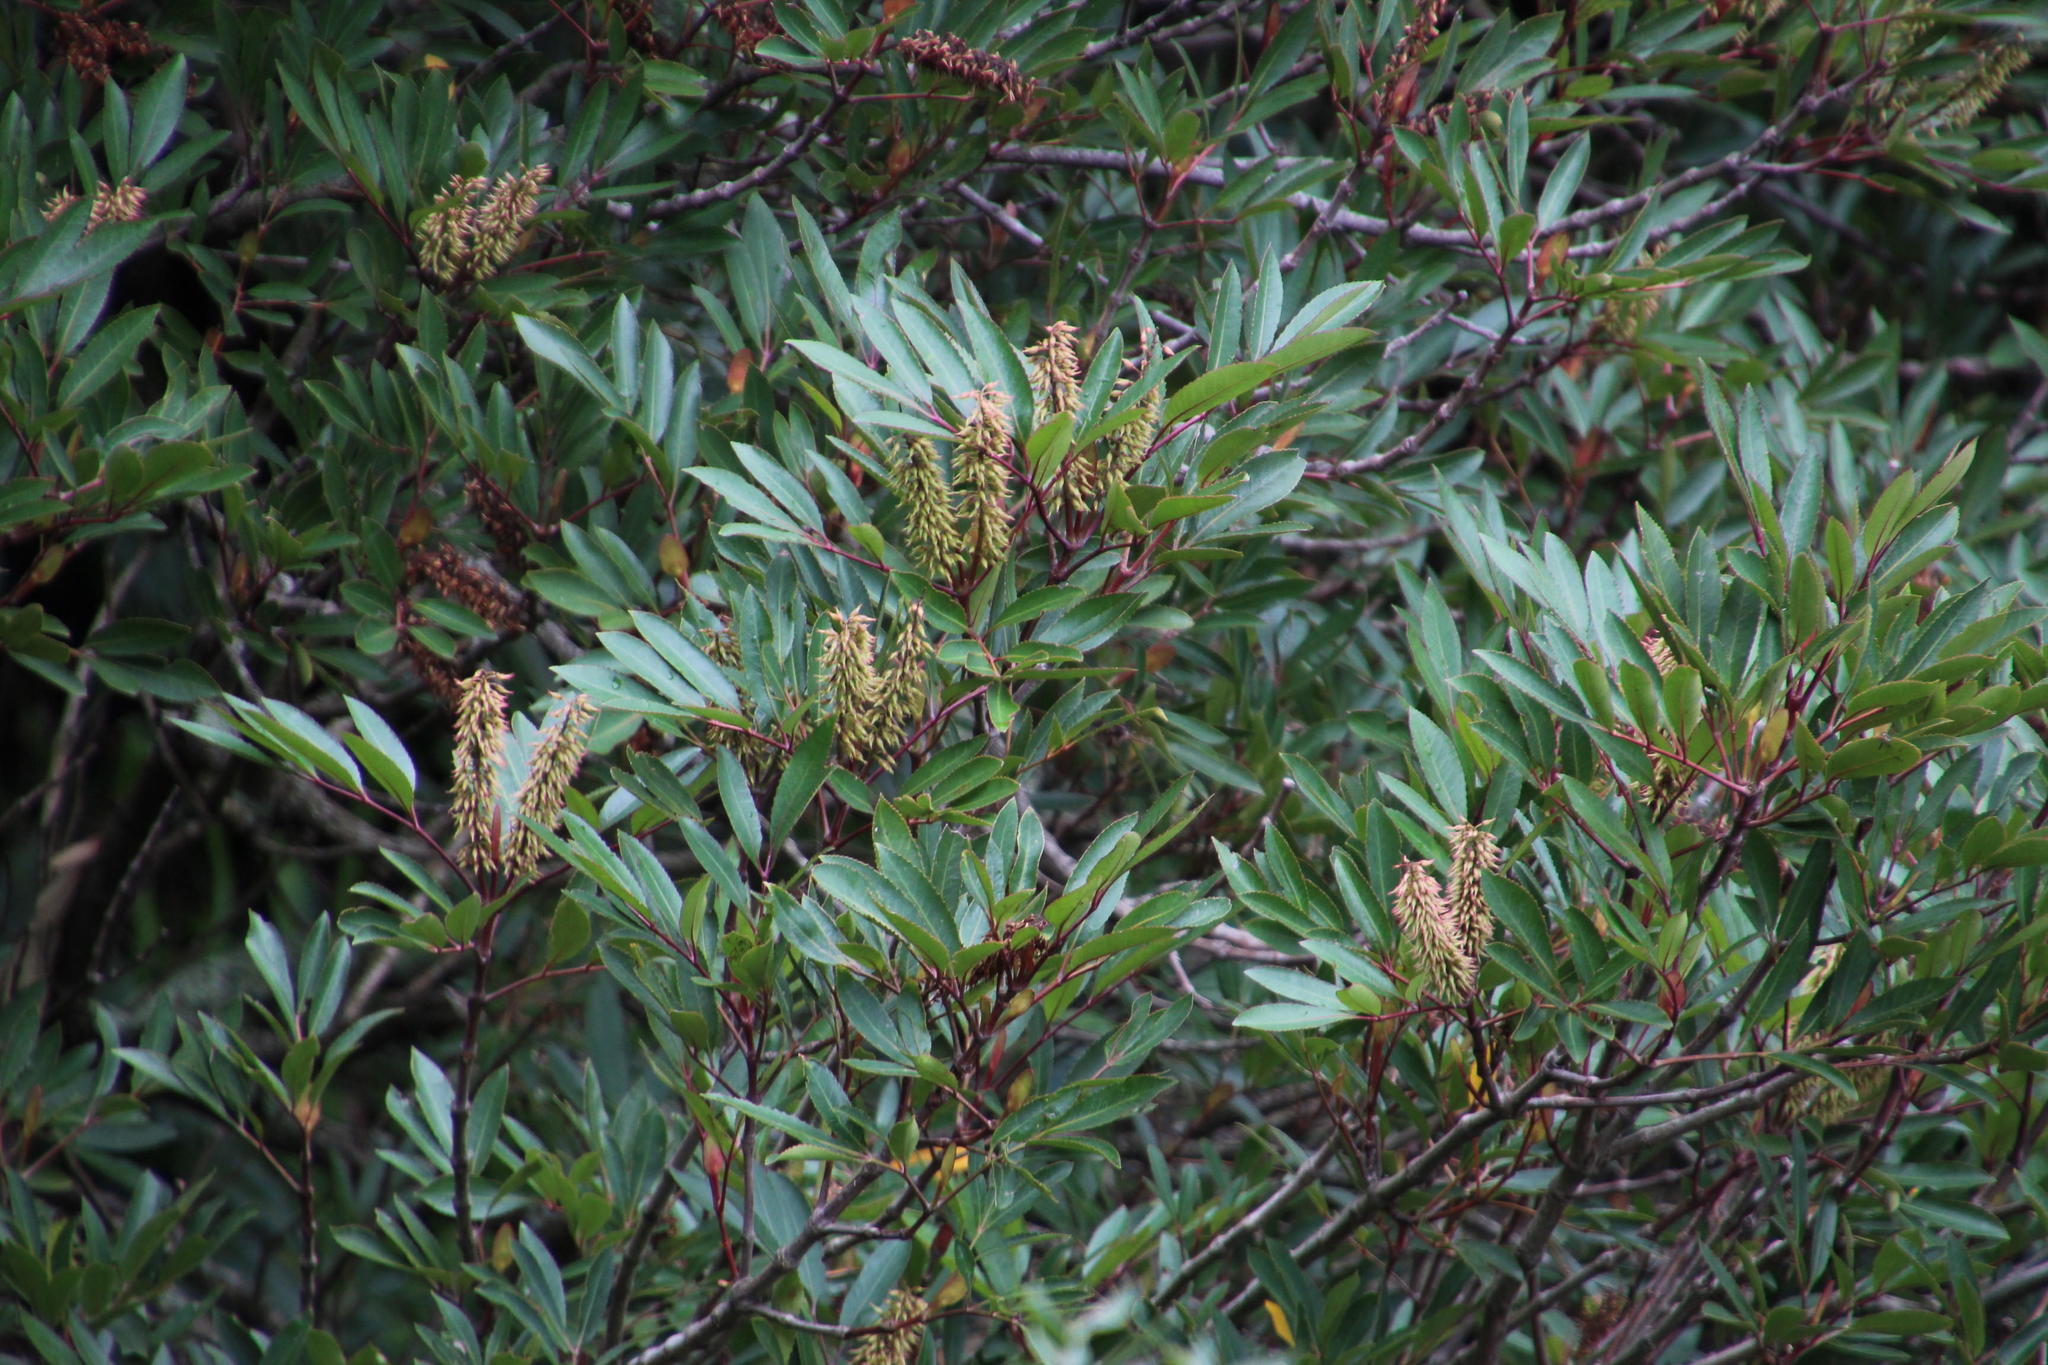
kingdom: Plantae
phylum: Tracheophyta
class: Magnoliopsida
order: Oxalidales
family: Cunoniaceae
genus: Cunonia
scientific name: Cunonia capensis
